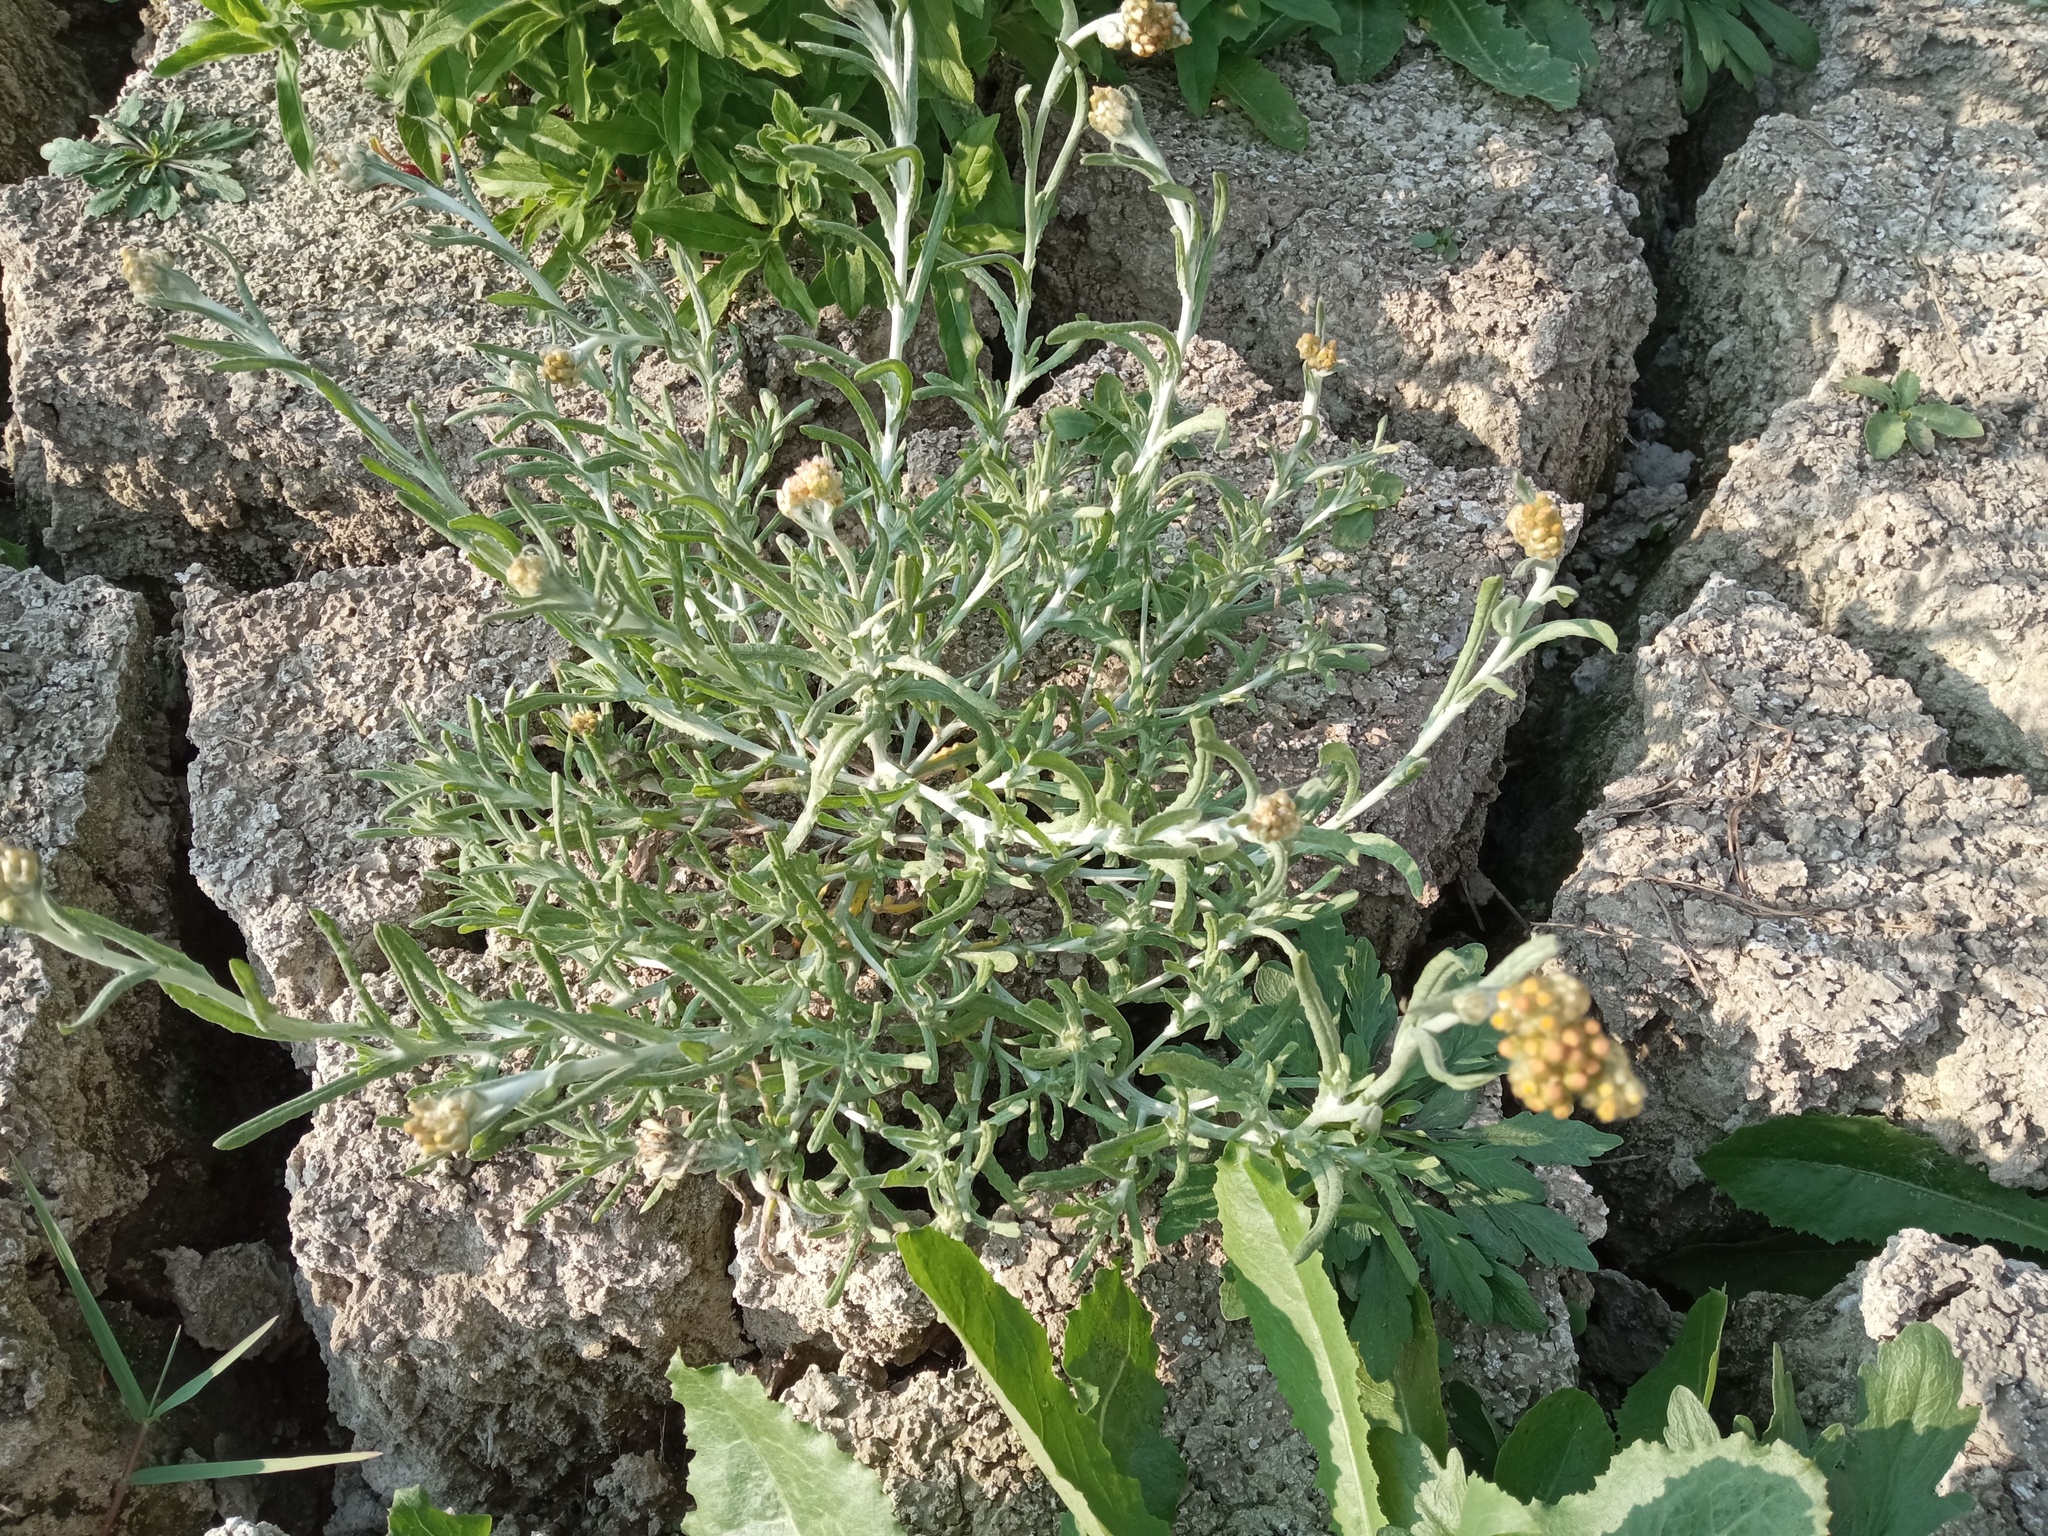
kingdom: Plantae
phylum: Tracheophyta
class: Magnoliopsida
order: Asterales
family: Asteraceae
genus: Helichrysum
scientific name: Helichrysum luteoalbum
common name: Daisy
